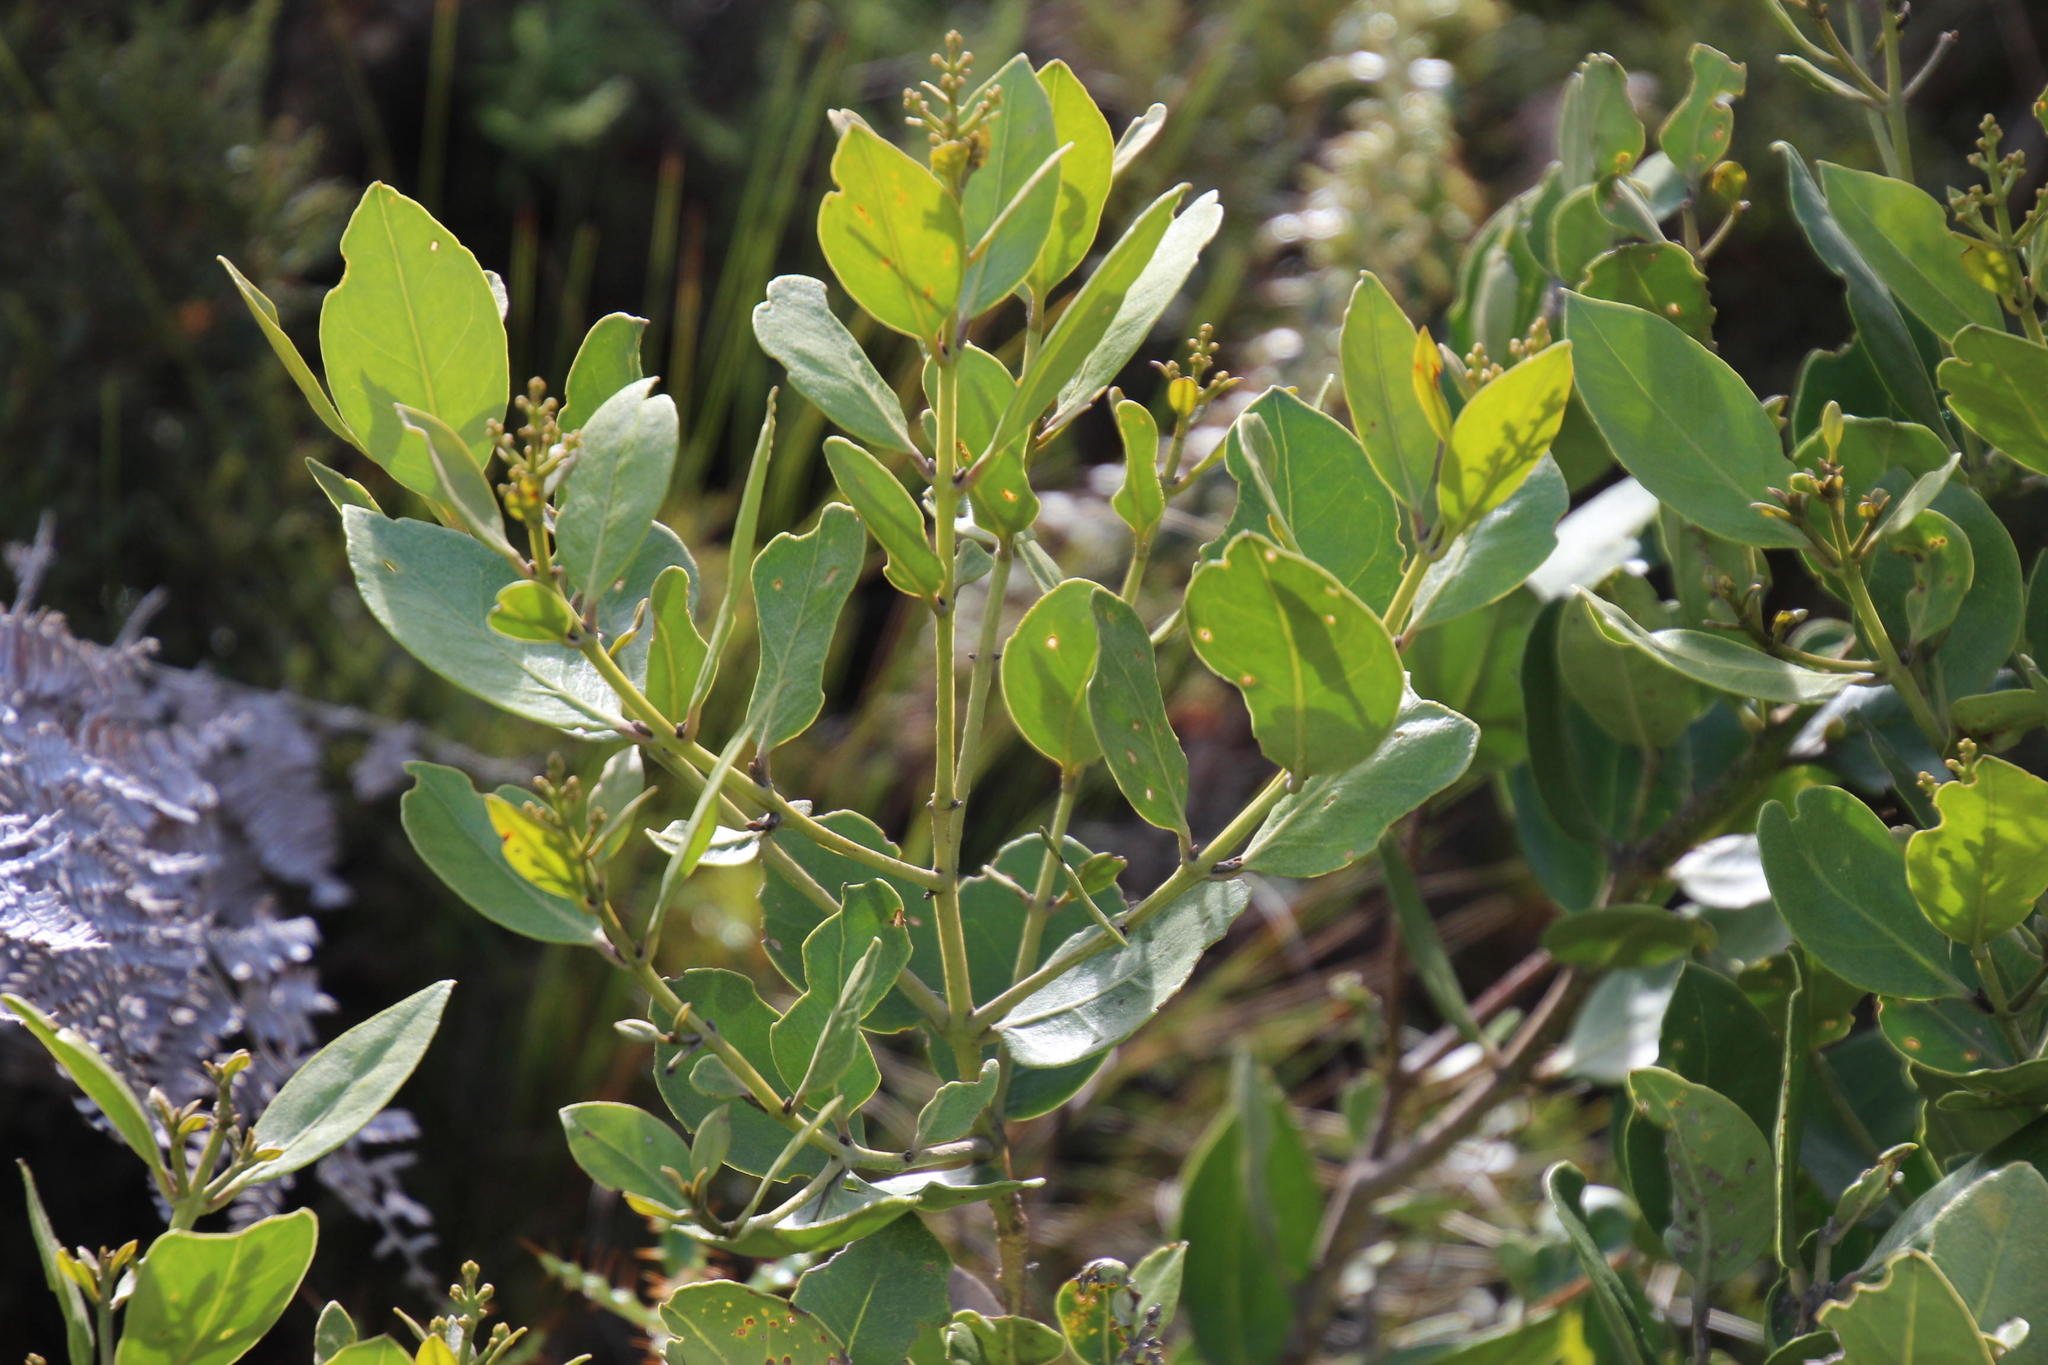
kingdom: Plantae
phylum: Tracheophyta
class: Magnoliopsida
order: Lamiales
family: Oleaceae
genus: Olea
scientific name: Olea capensis
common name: Black ironwood
